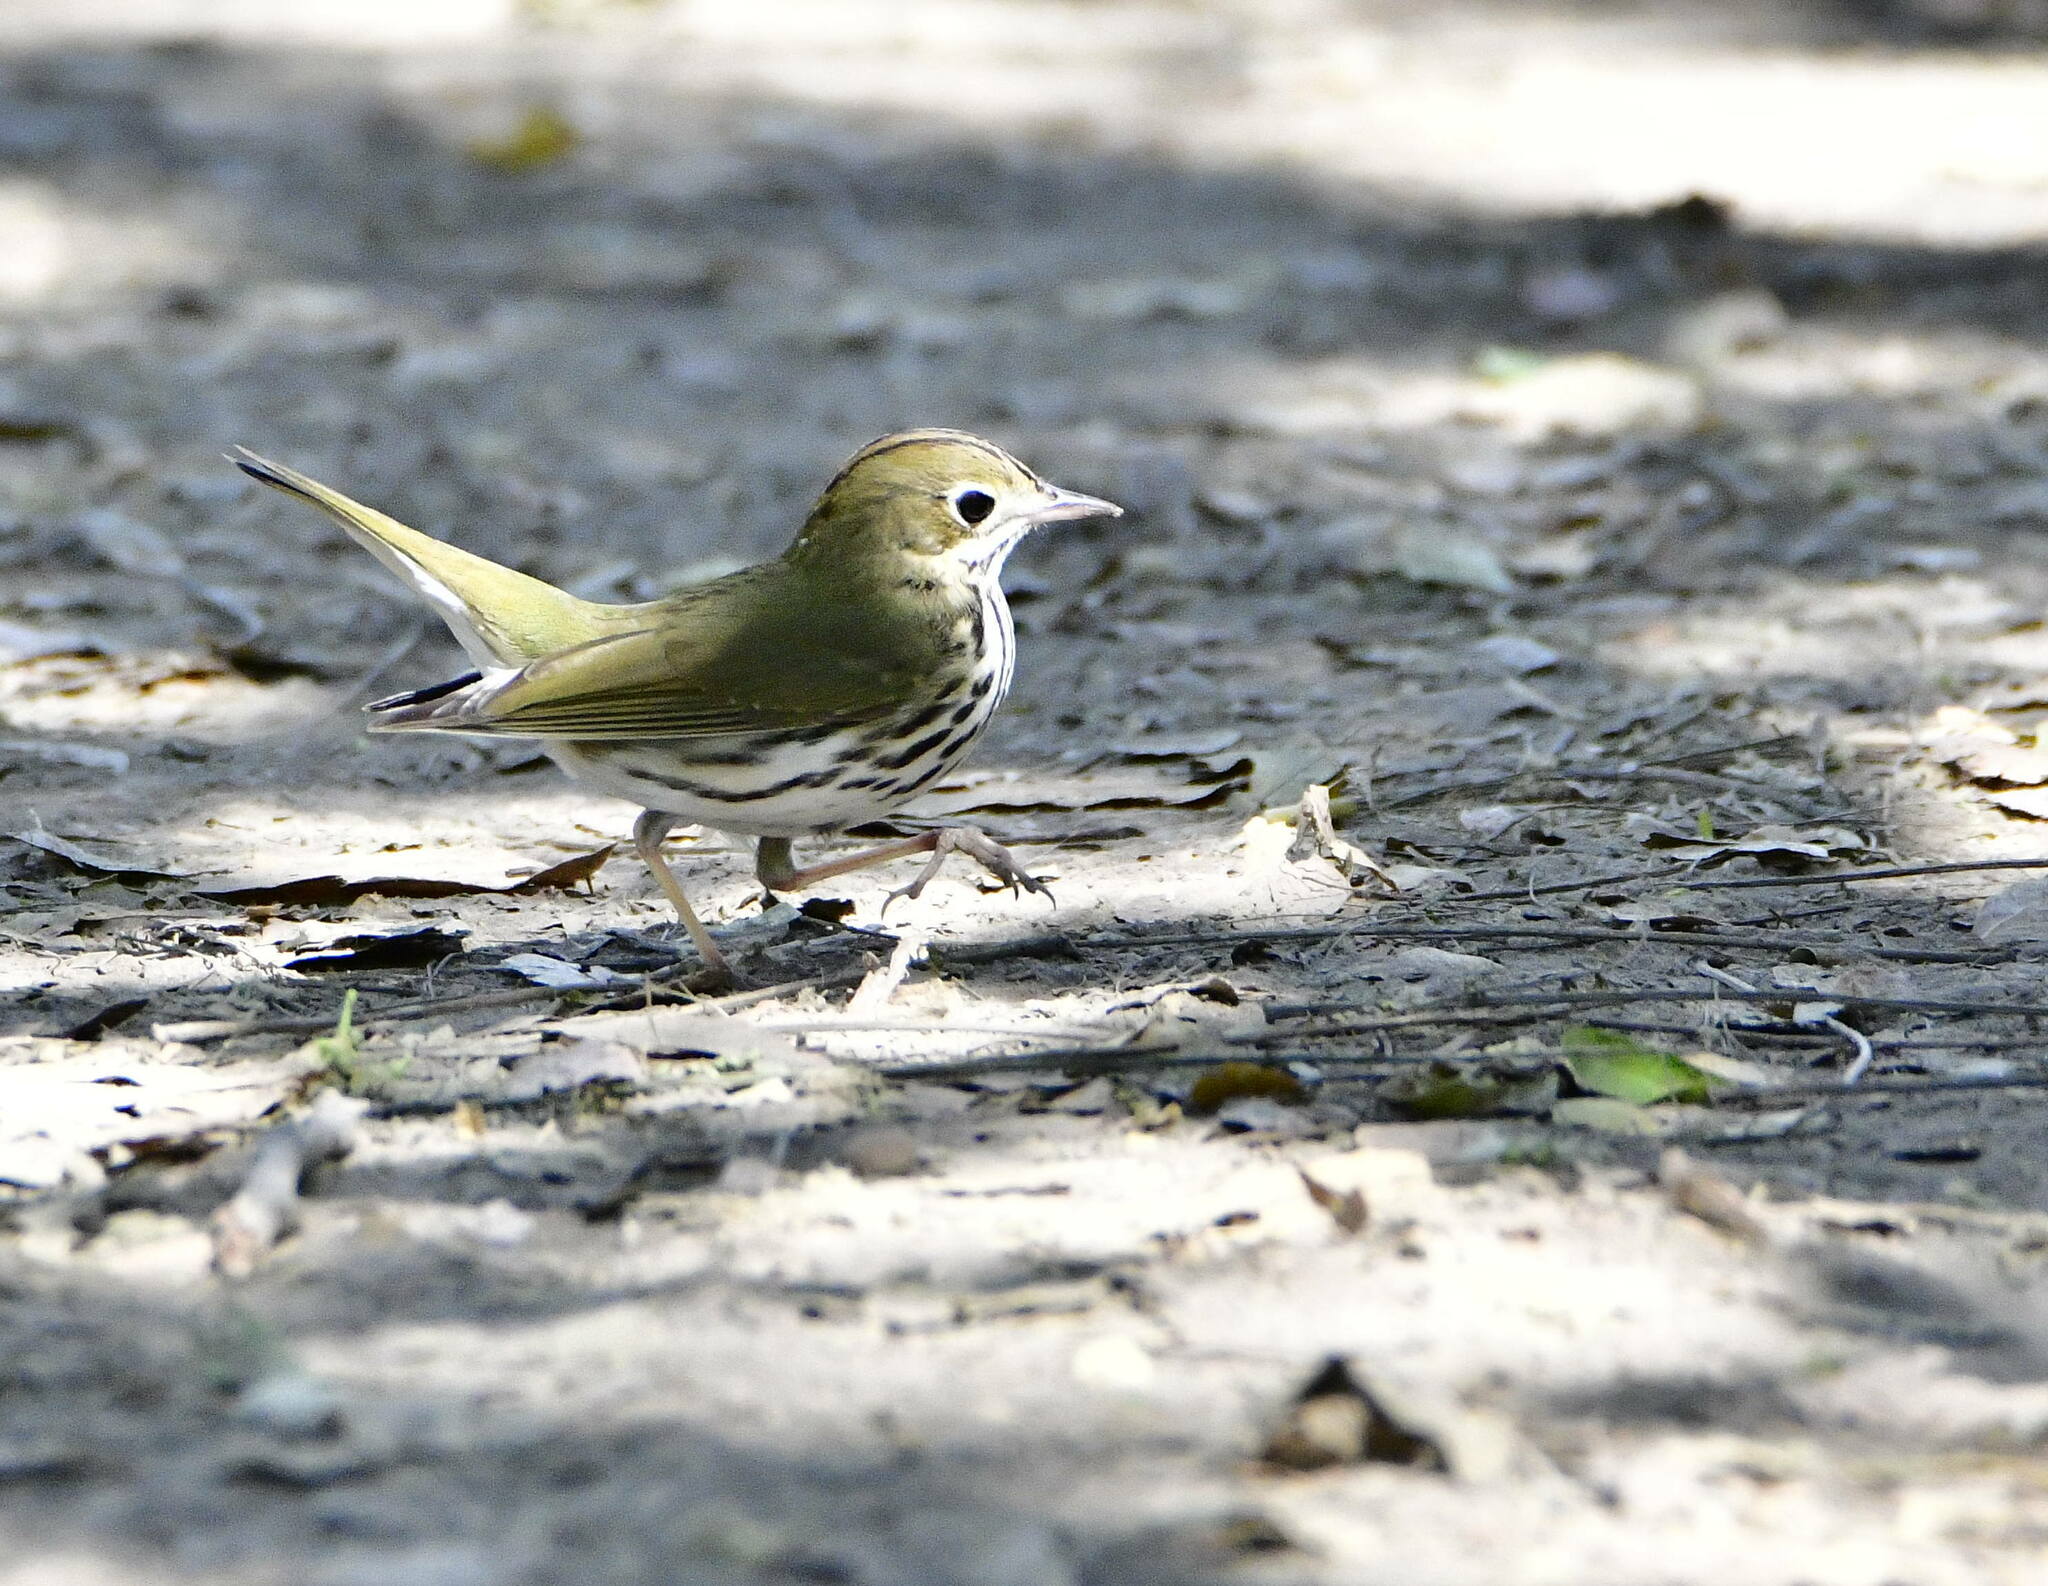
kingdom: Animalia
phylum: Chordata
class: Aves
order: Passeriformes
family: Parulidae
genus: Seiurus
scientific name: Seiurus aurocapilla
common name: Ovenbird
